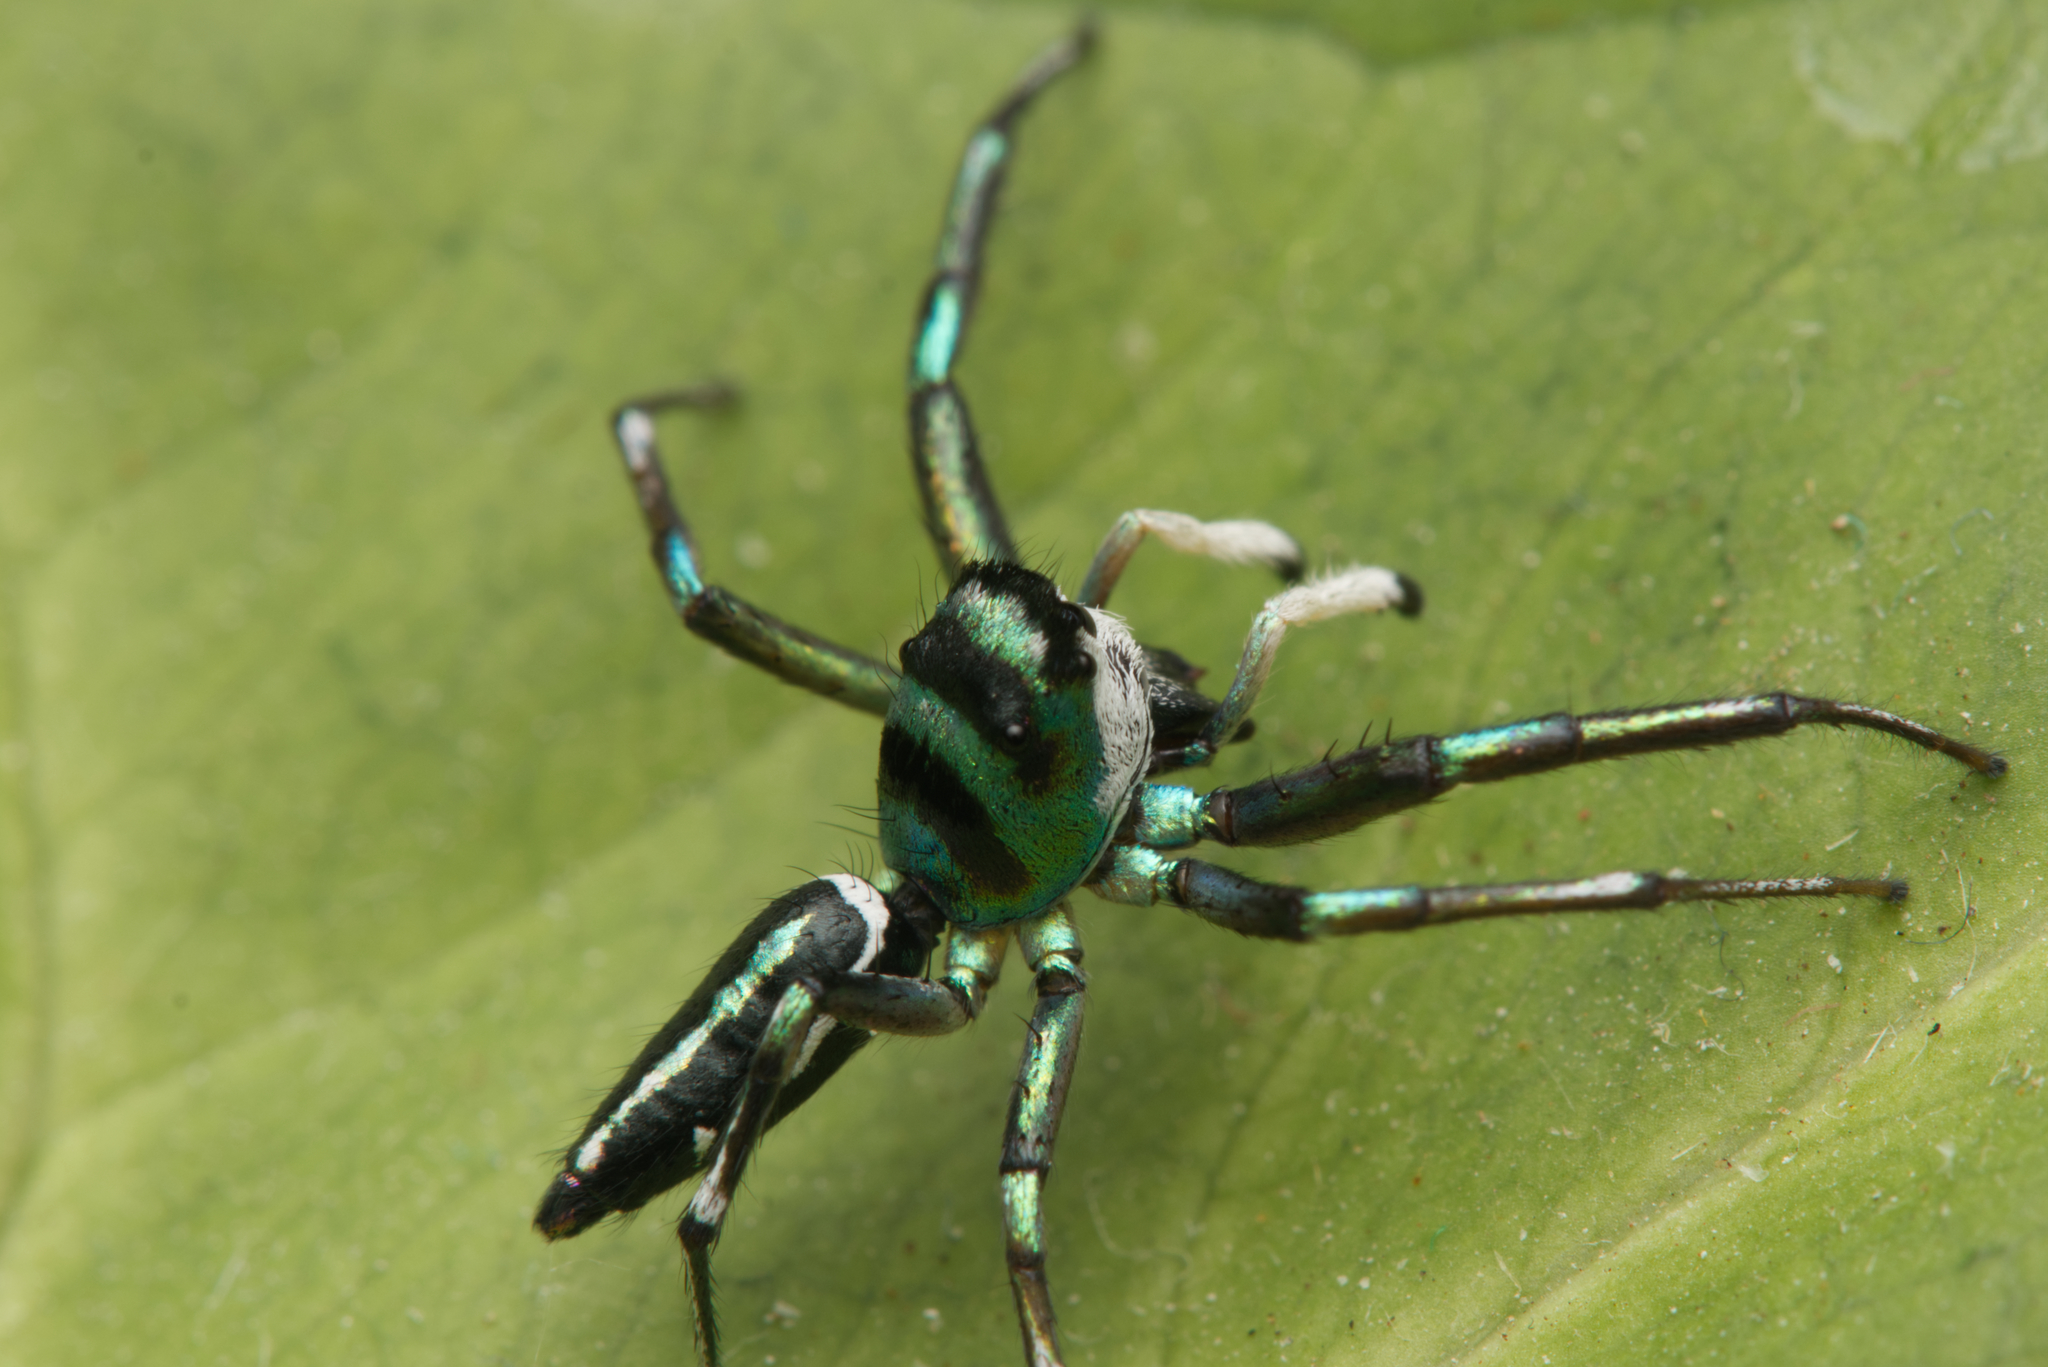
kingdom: Animalia
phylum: Arthropoda
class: Arachnida
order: Araneae
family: Salticidae
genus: Cosmophasis
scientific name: Cosmophasis thalassina
